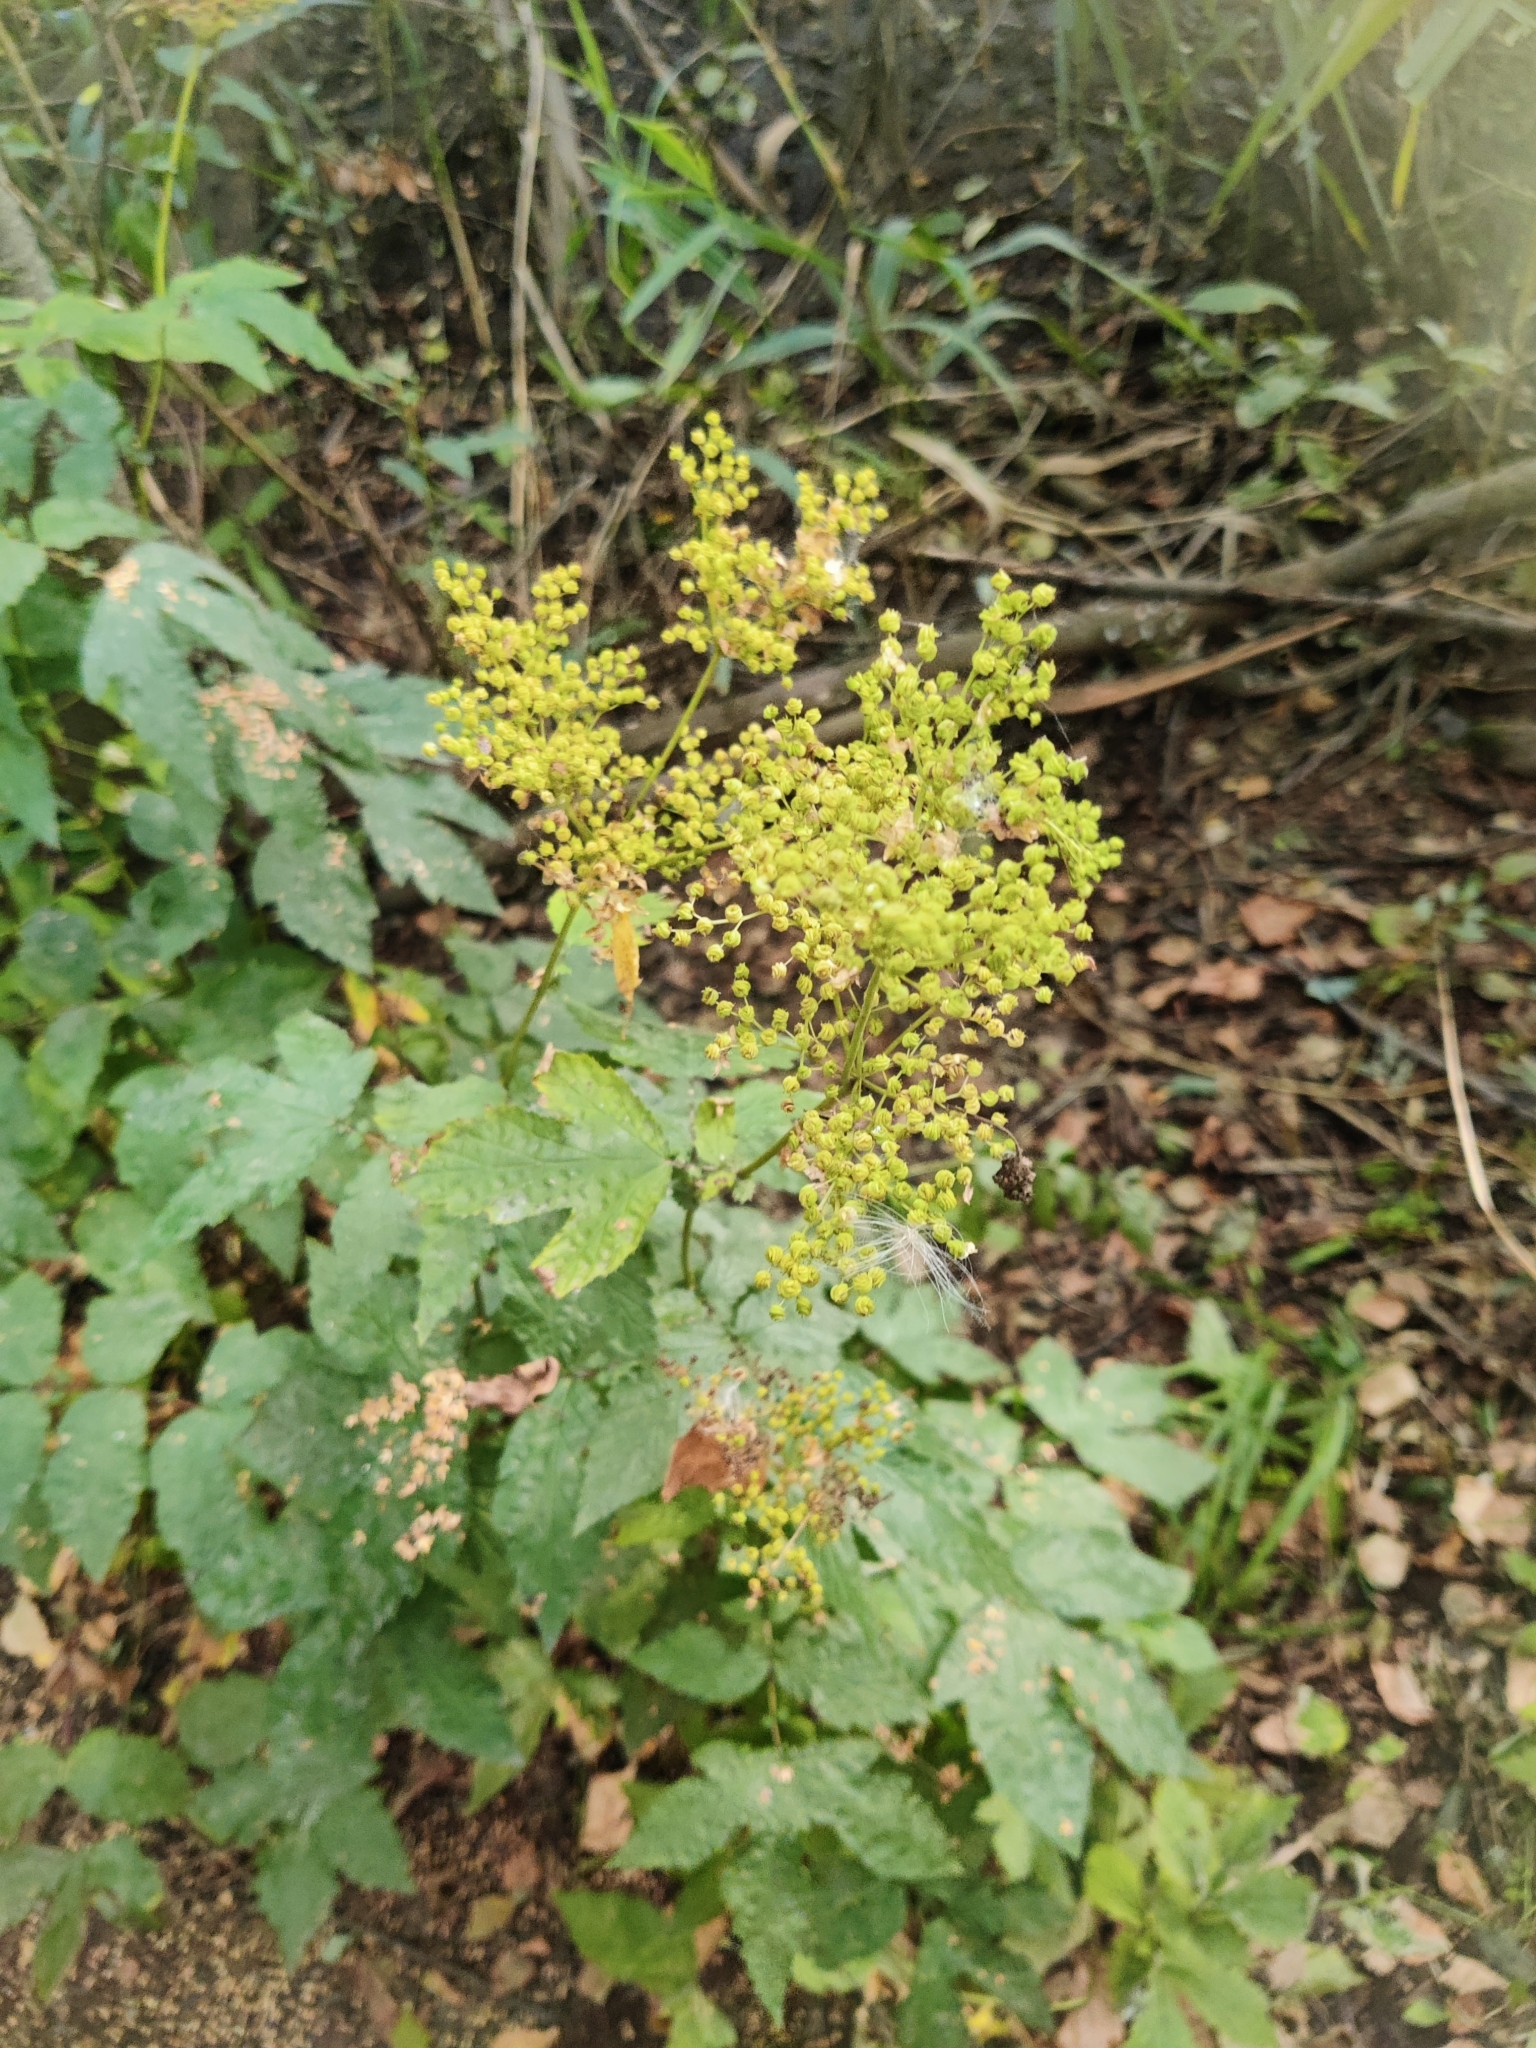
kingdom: Plantae
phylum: Tracheophyta
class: Magnoliopsida
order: Rosales
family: Rosaceae
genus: Filipendula
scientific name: Filipendula ulmaria
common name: Meadowsweet
